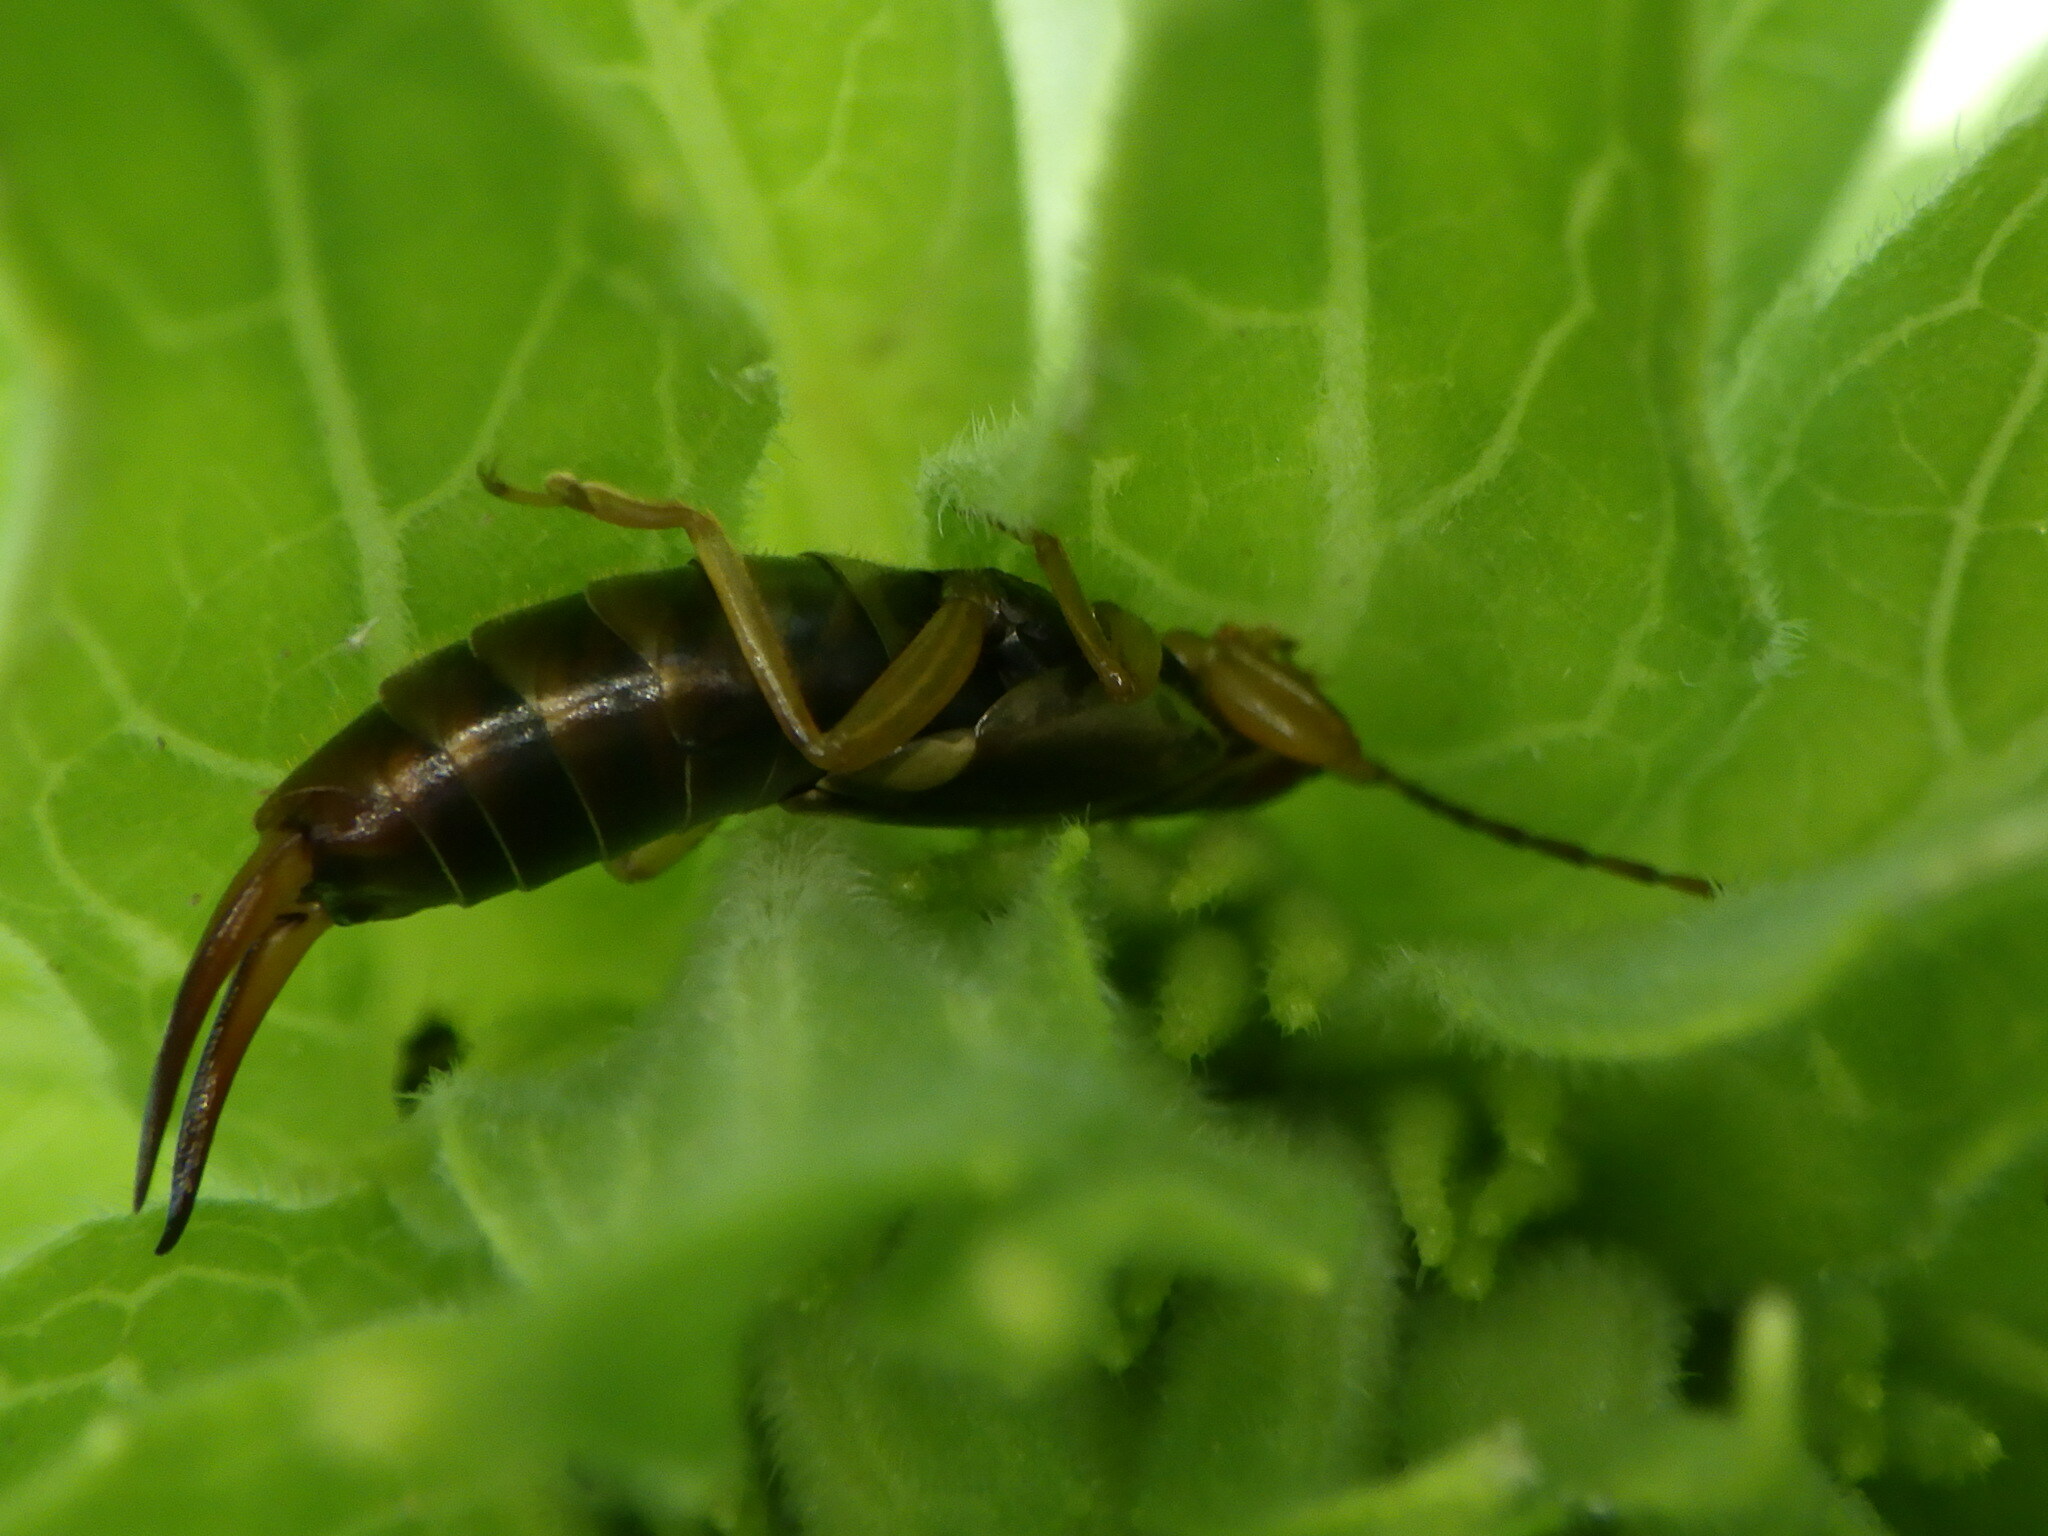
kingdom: Animalia
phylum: Arthropoda
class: Insecta
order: Dermaptera
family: Forficulidae
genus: Forficula
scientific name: Forficula
